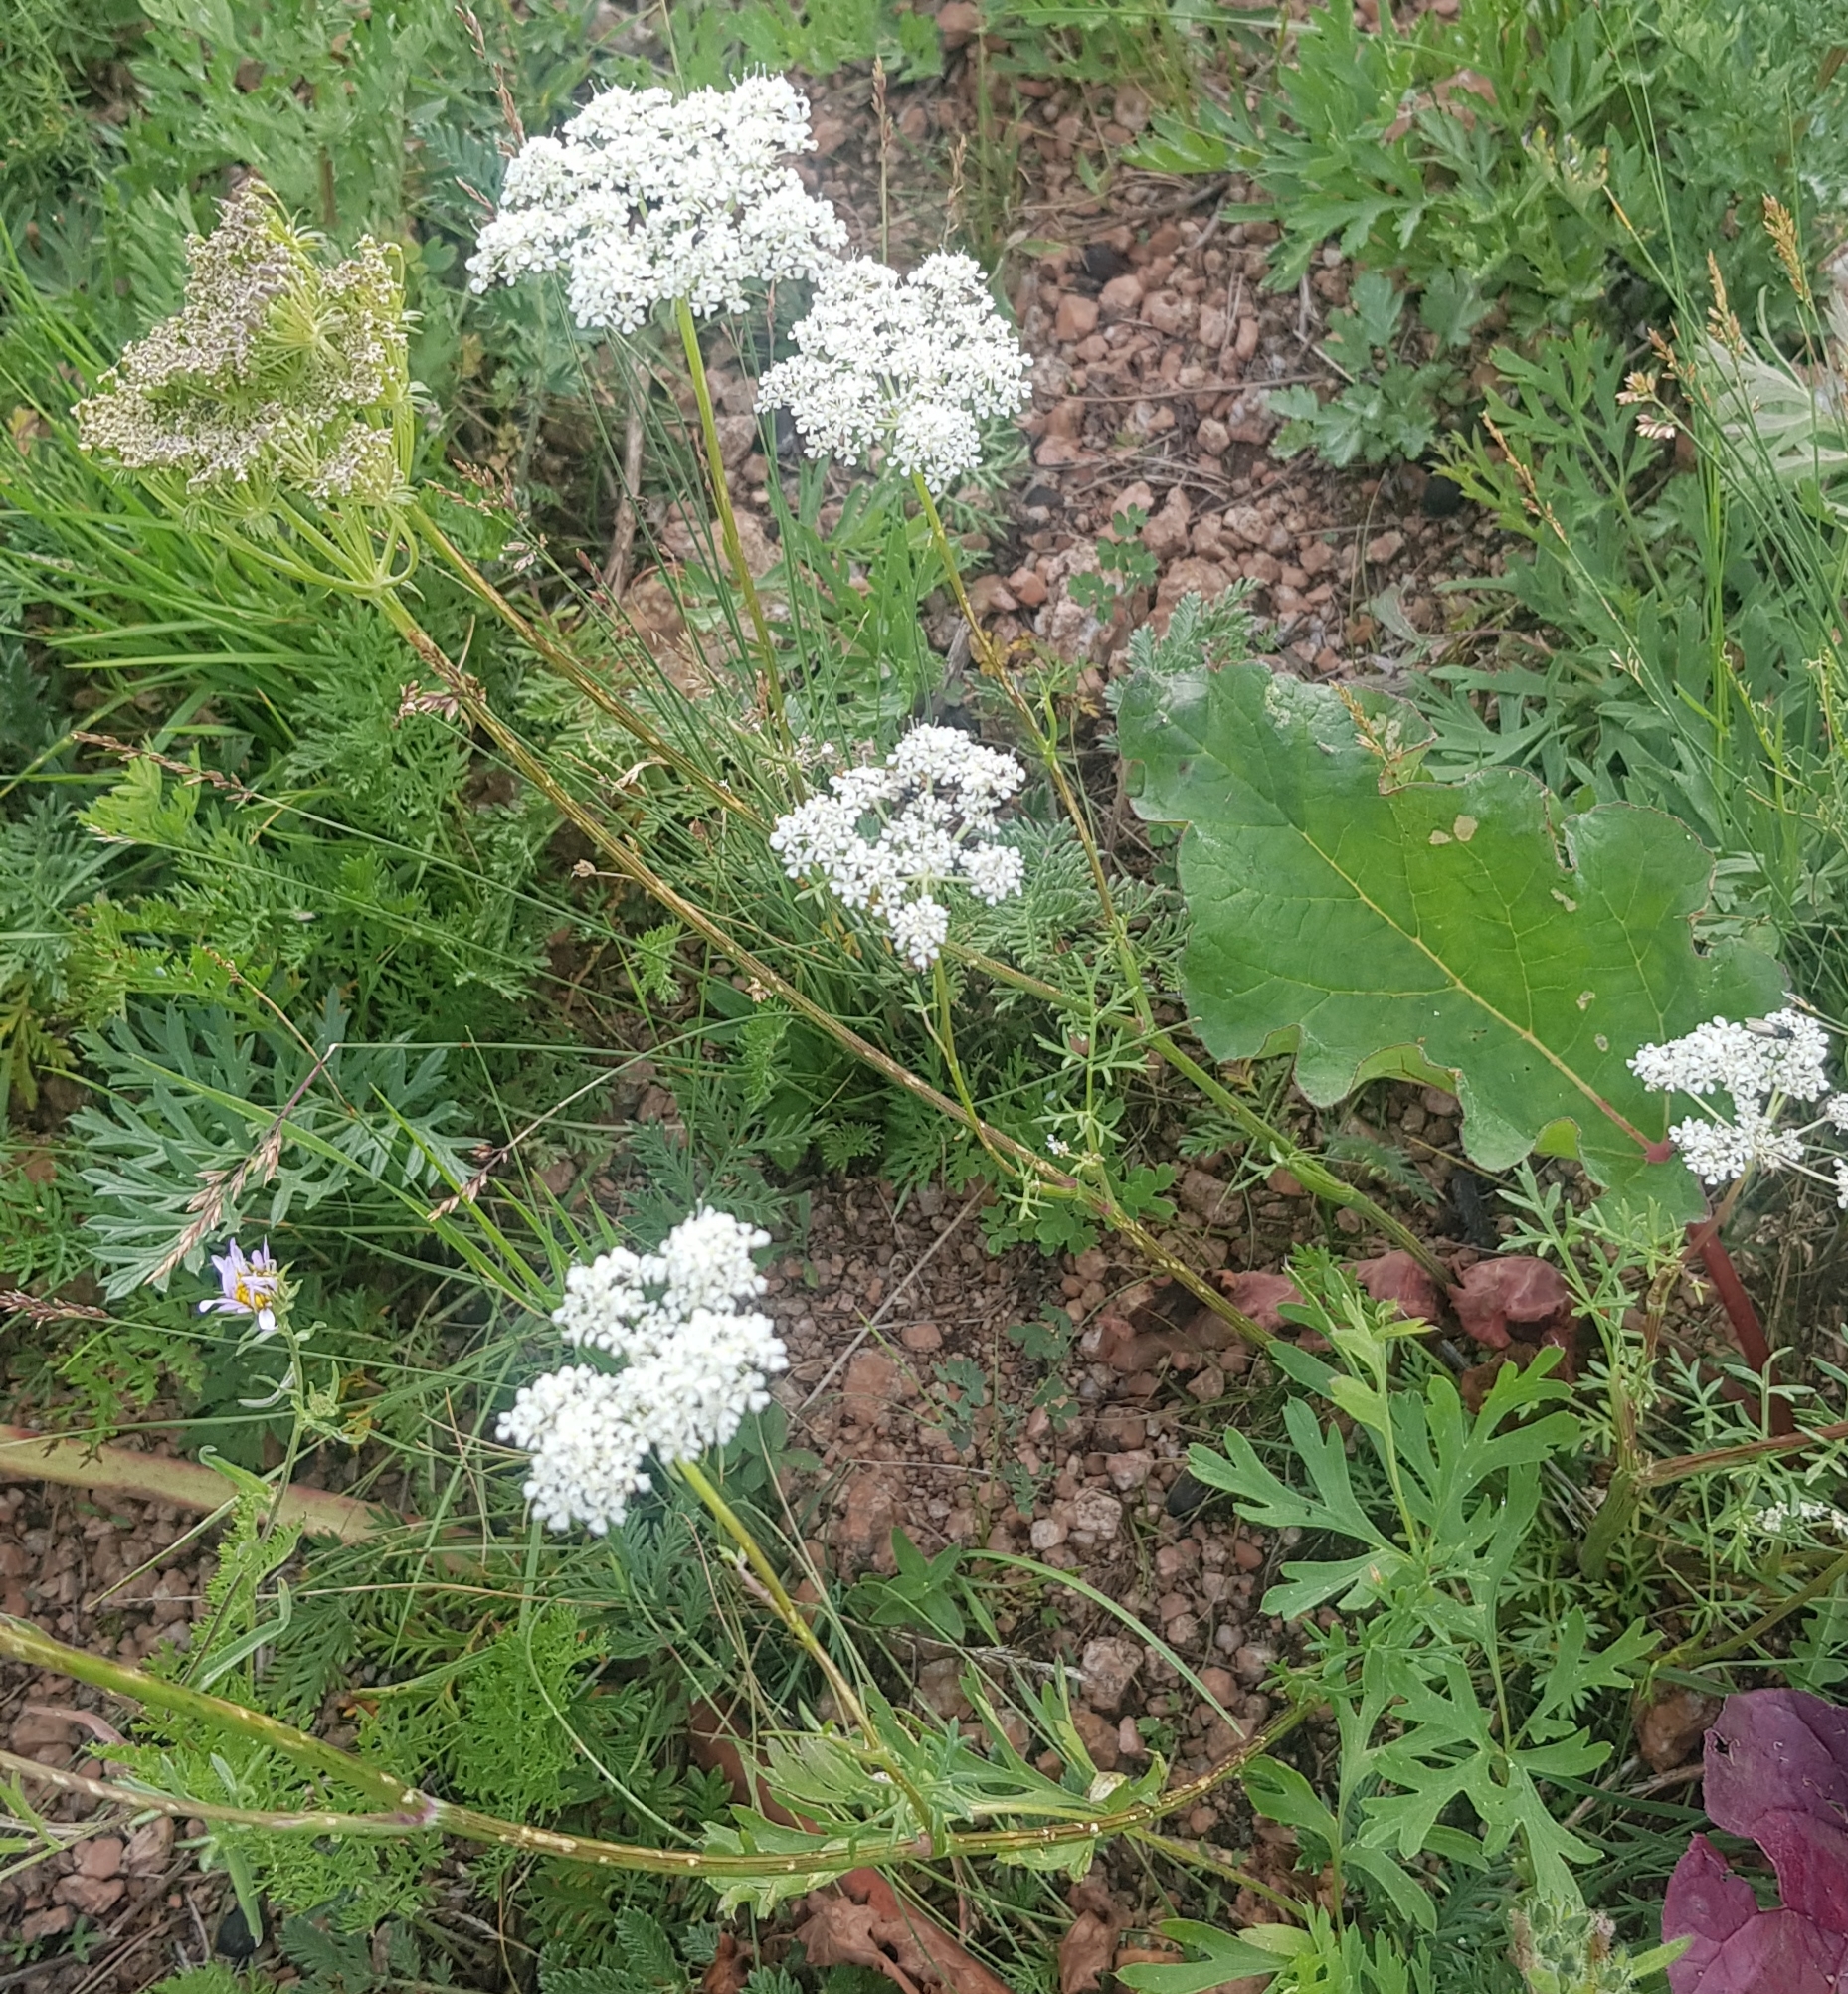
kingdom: Plantae
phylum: Tracheophyta
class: Magnoliopsida
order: Apiales
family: Apiaceae
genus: Kitagawia
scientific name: Kitagawia baicalensis
